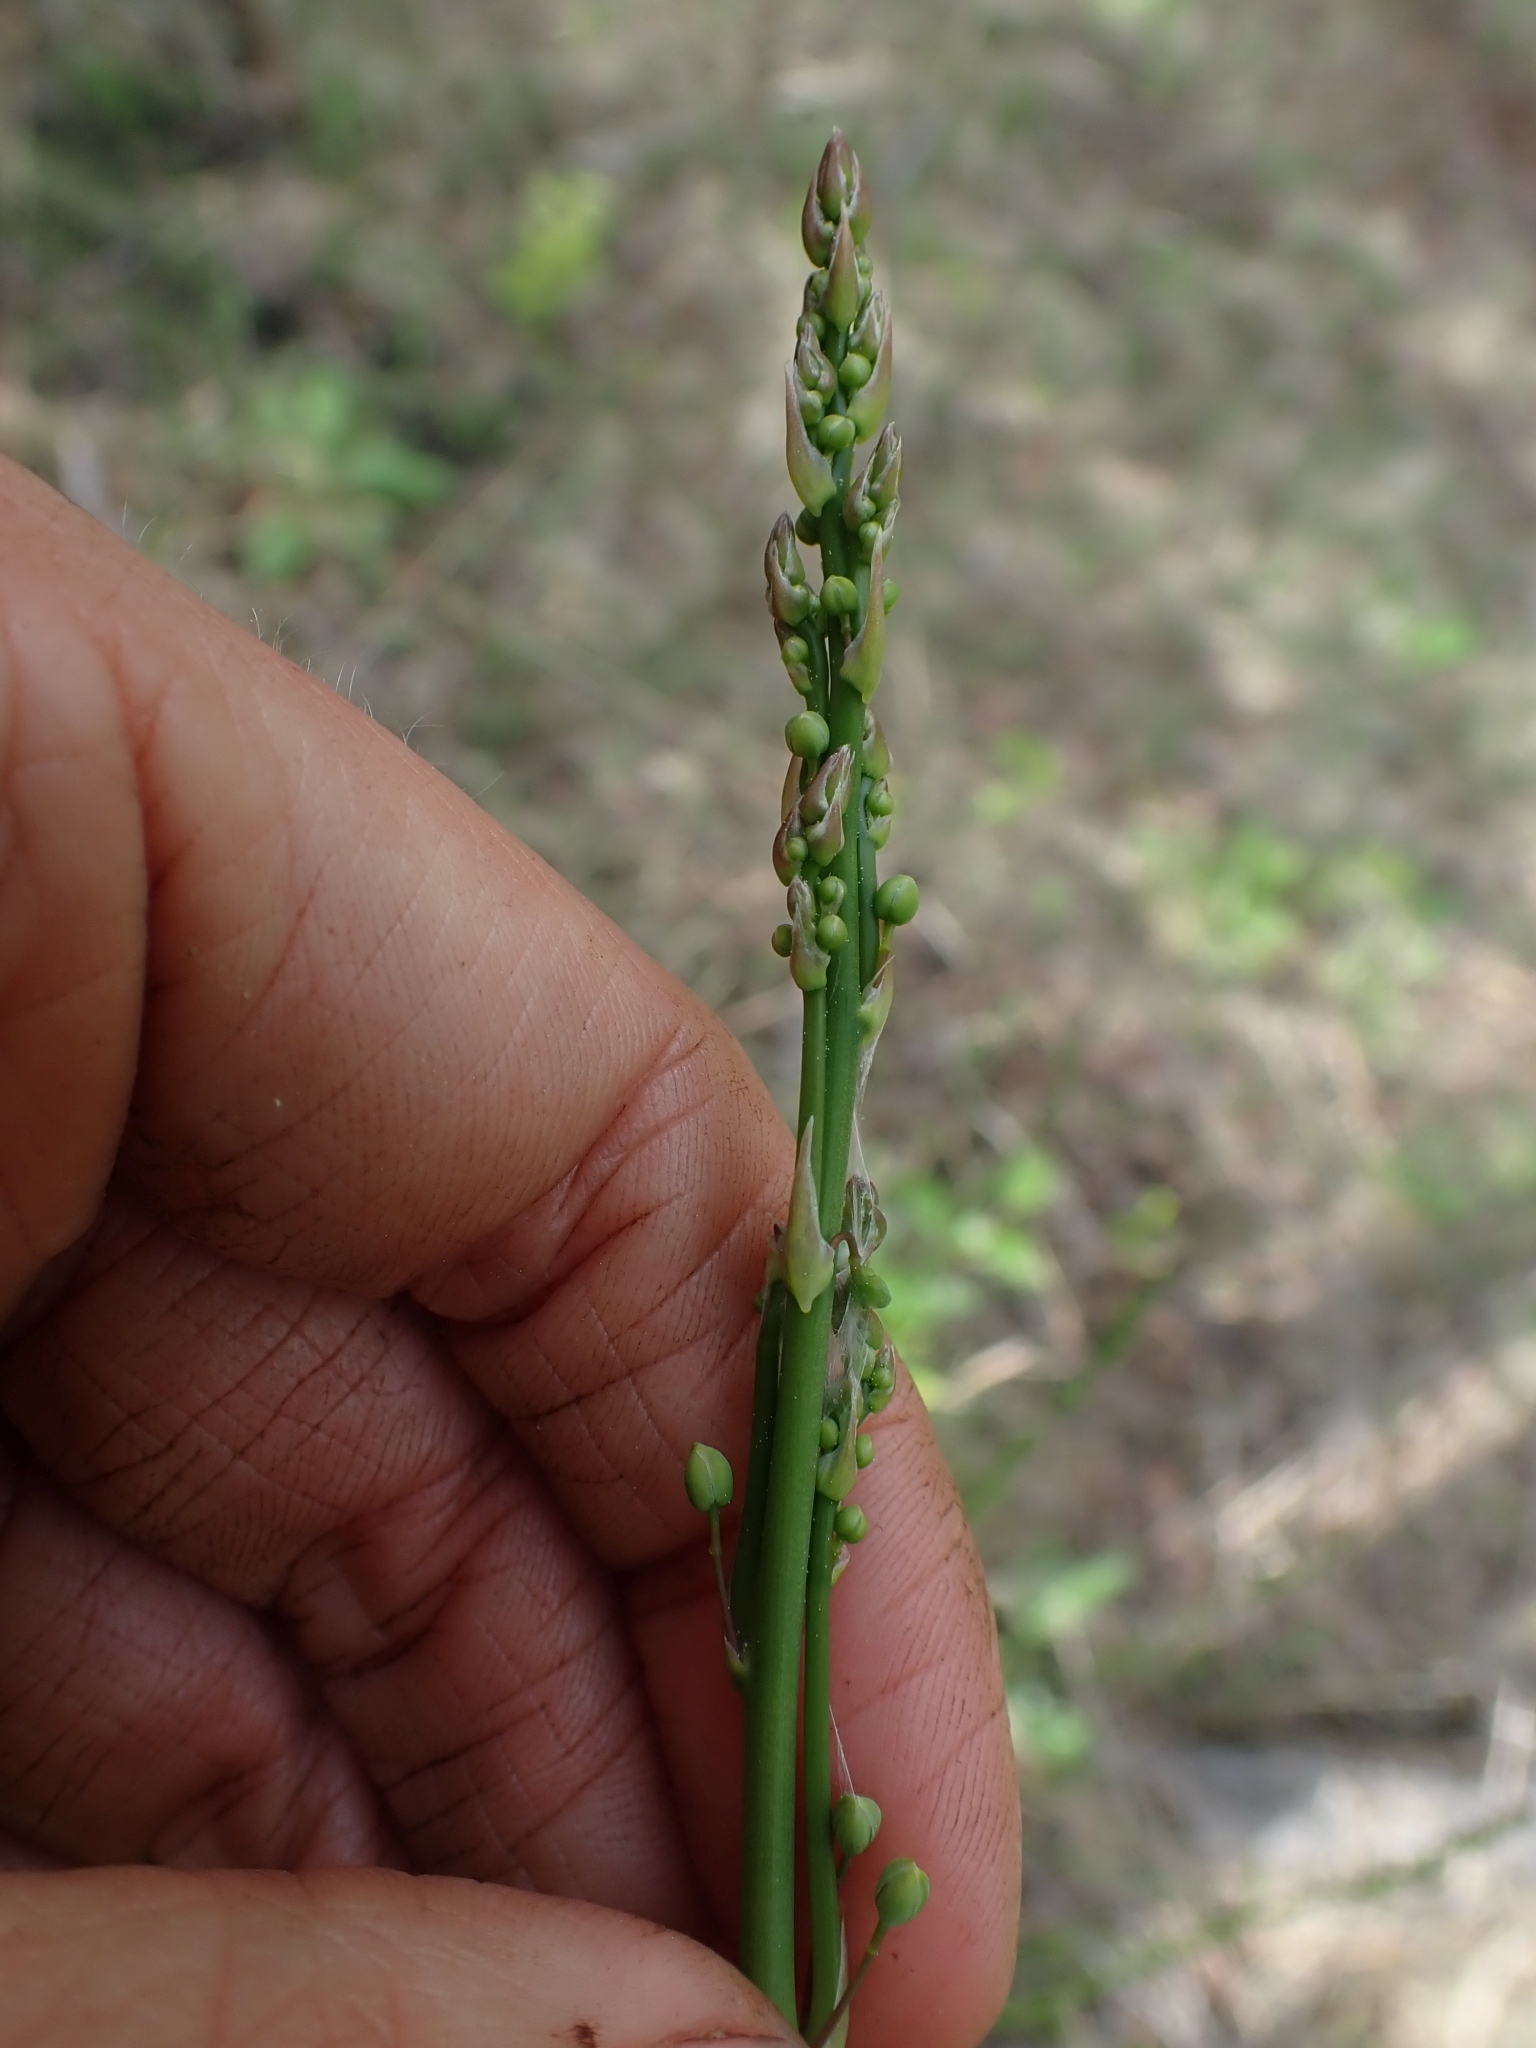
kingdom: Plantae
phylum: Tracheophyta
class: Liliopsida
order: Asparagales
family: Asparagaceae
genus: Asparagus
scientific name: Asparagus officinalis
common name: Garden asparagus
